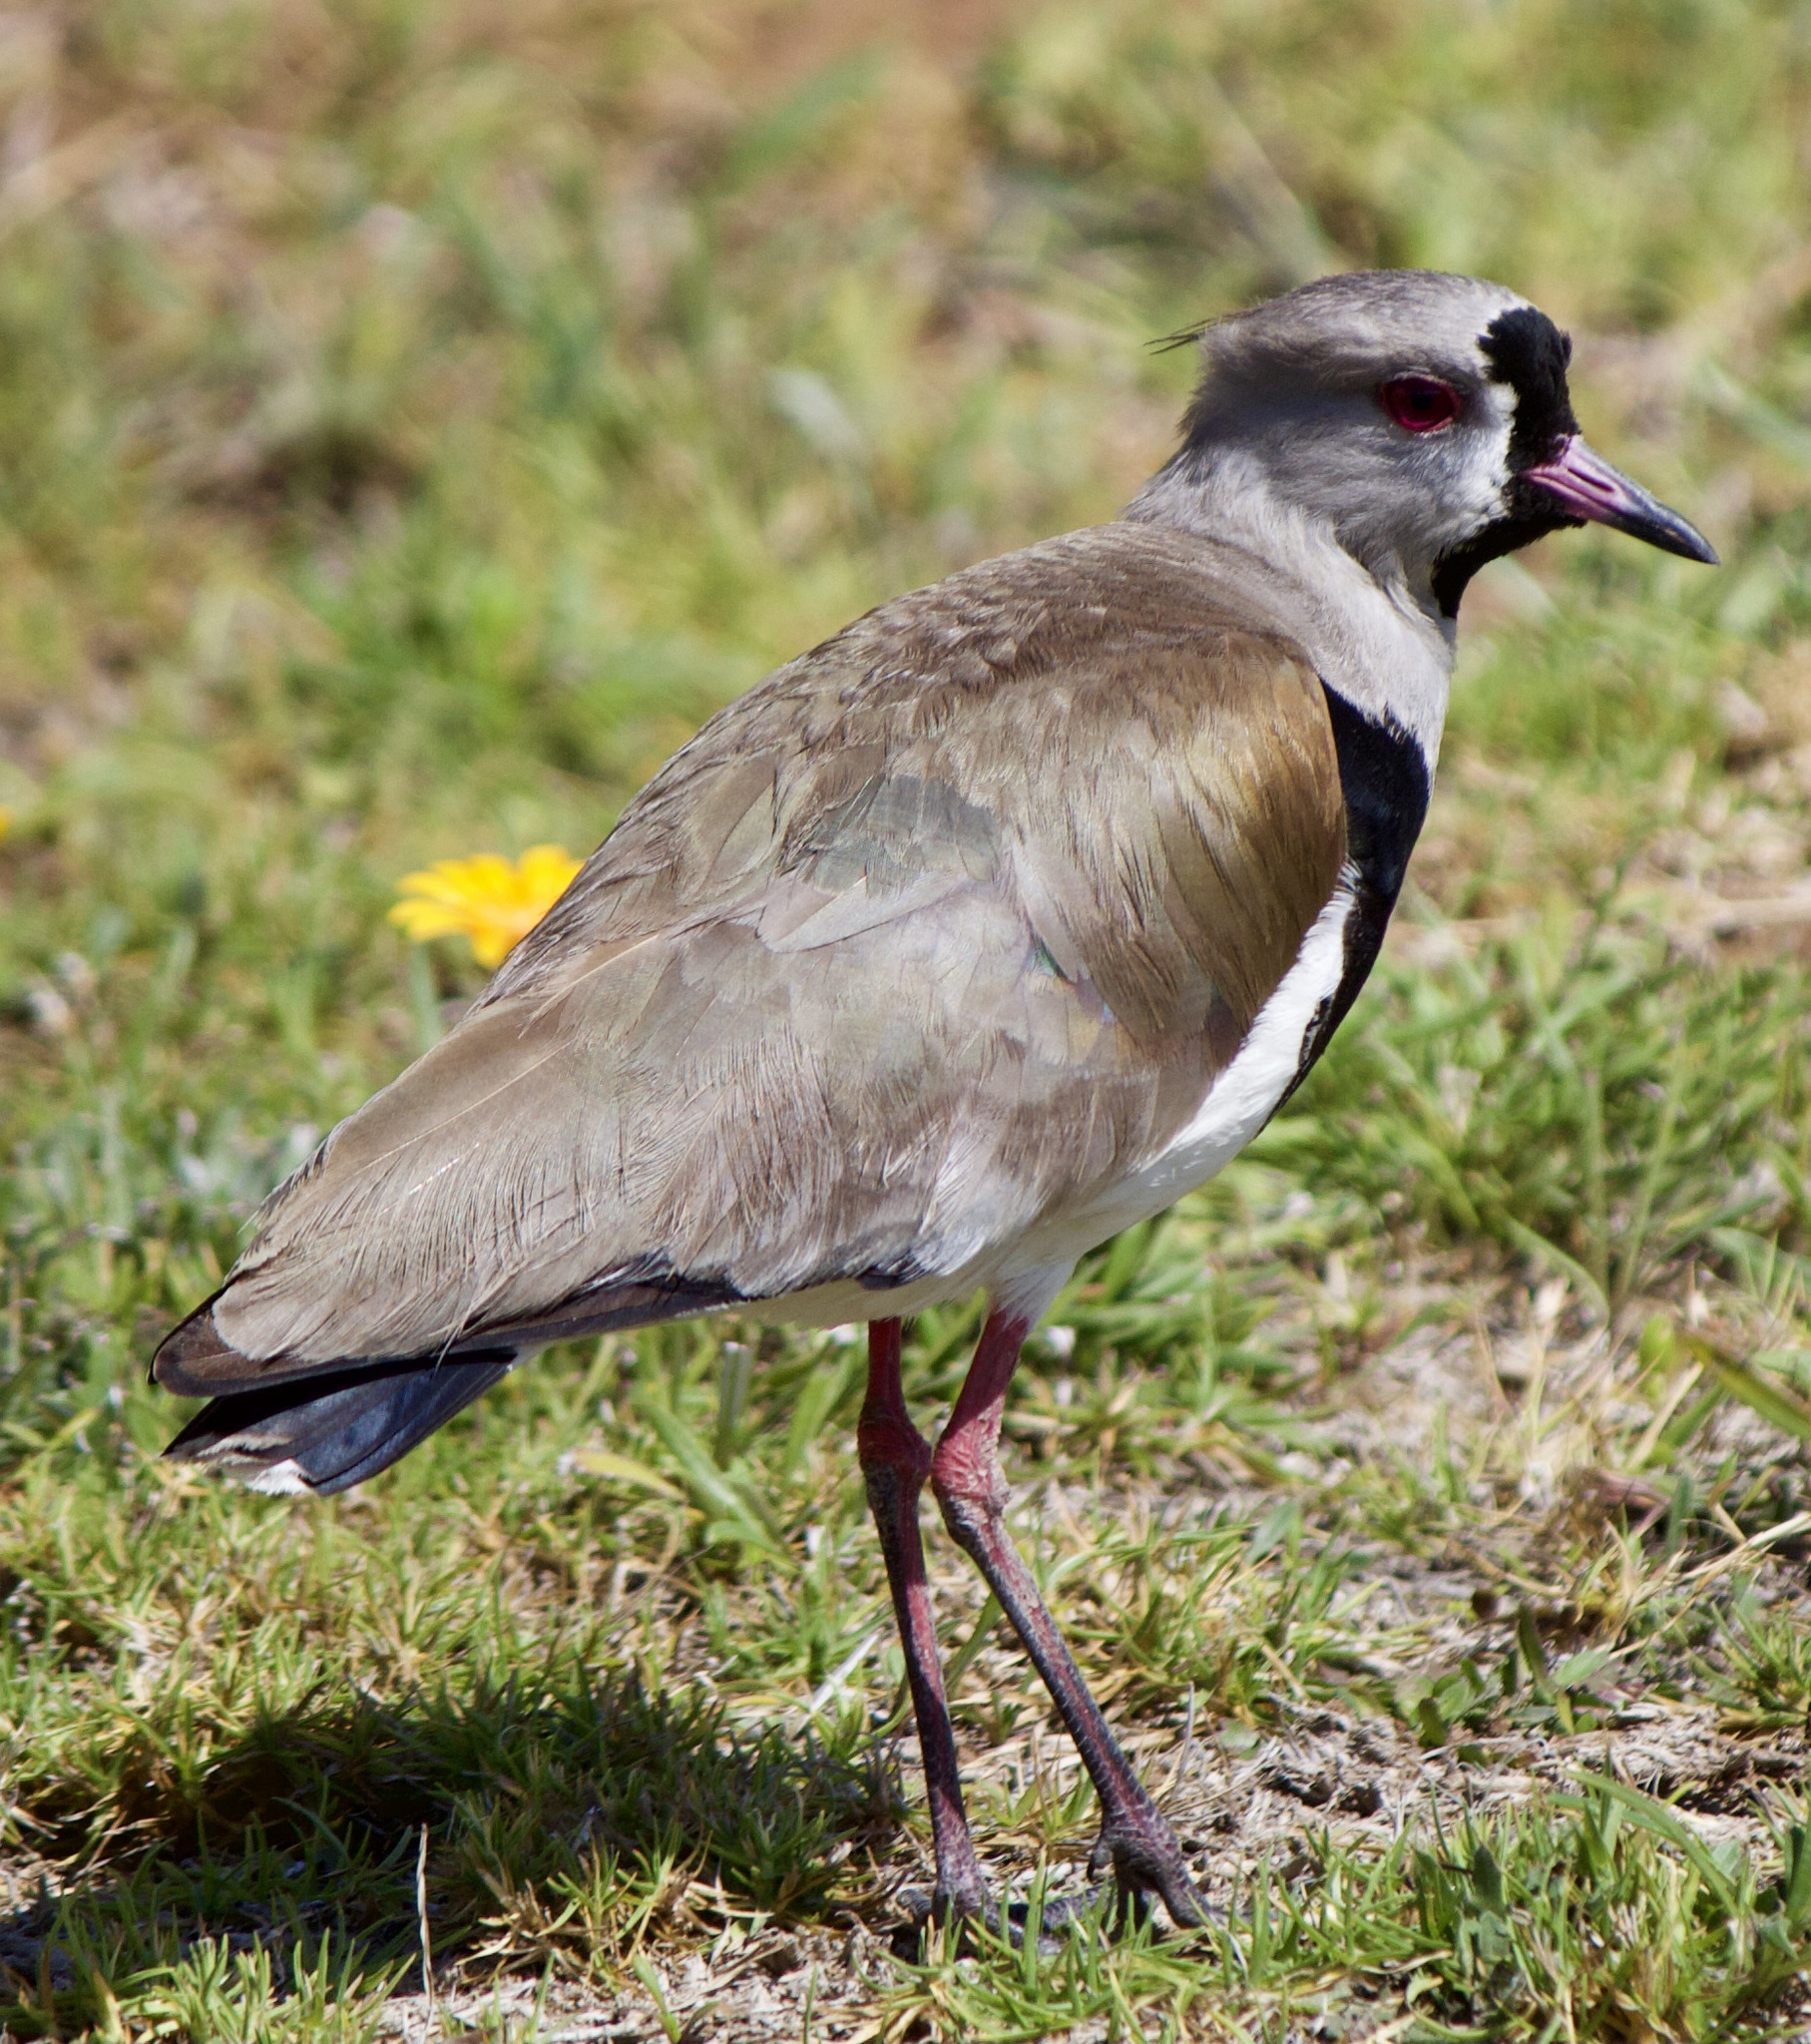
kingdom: Animalia
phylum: Chordata
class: Aves
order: Charadriiformes
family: Charadriidae
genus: Vanellus
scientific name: Vanellus chilensis
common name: Southern lapwing
